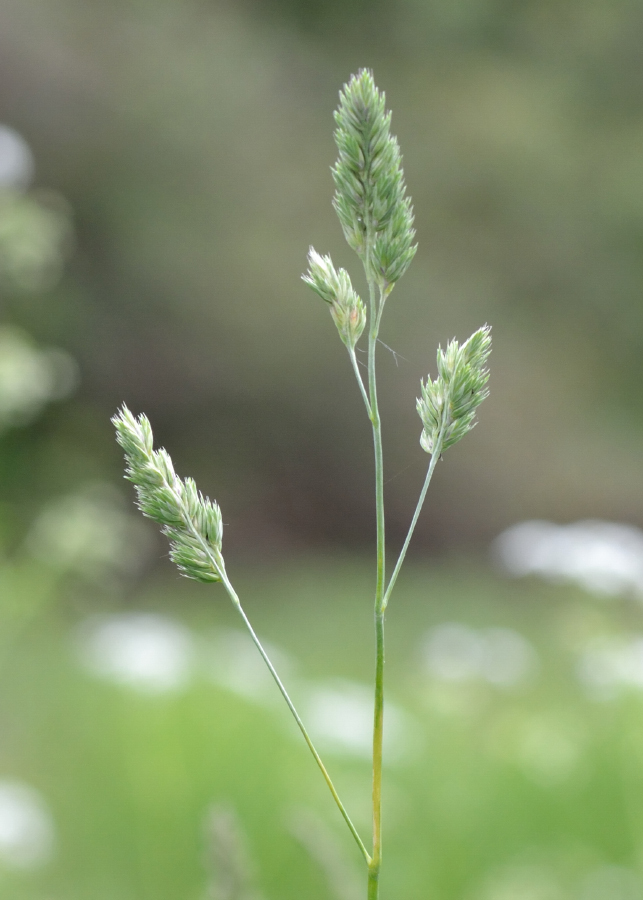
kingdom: Plantae
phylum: Tracheophyta
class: Liliopsida
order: Poales
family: Poaceae
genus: Dactylis
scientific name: Dactylis glomerata
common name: Orchardgrass
